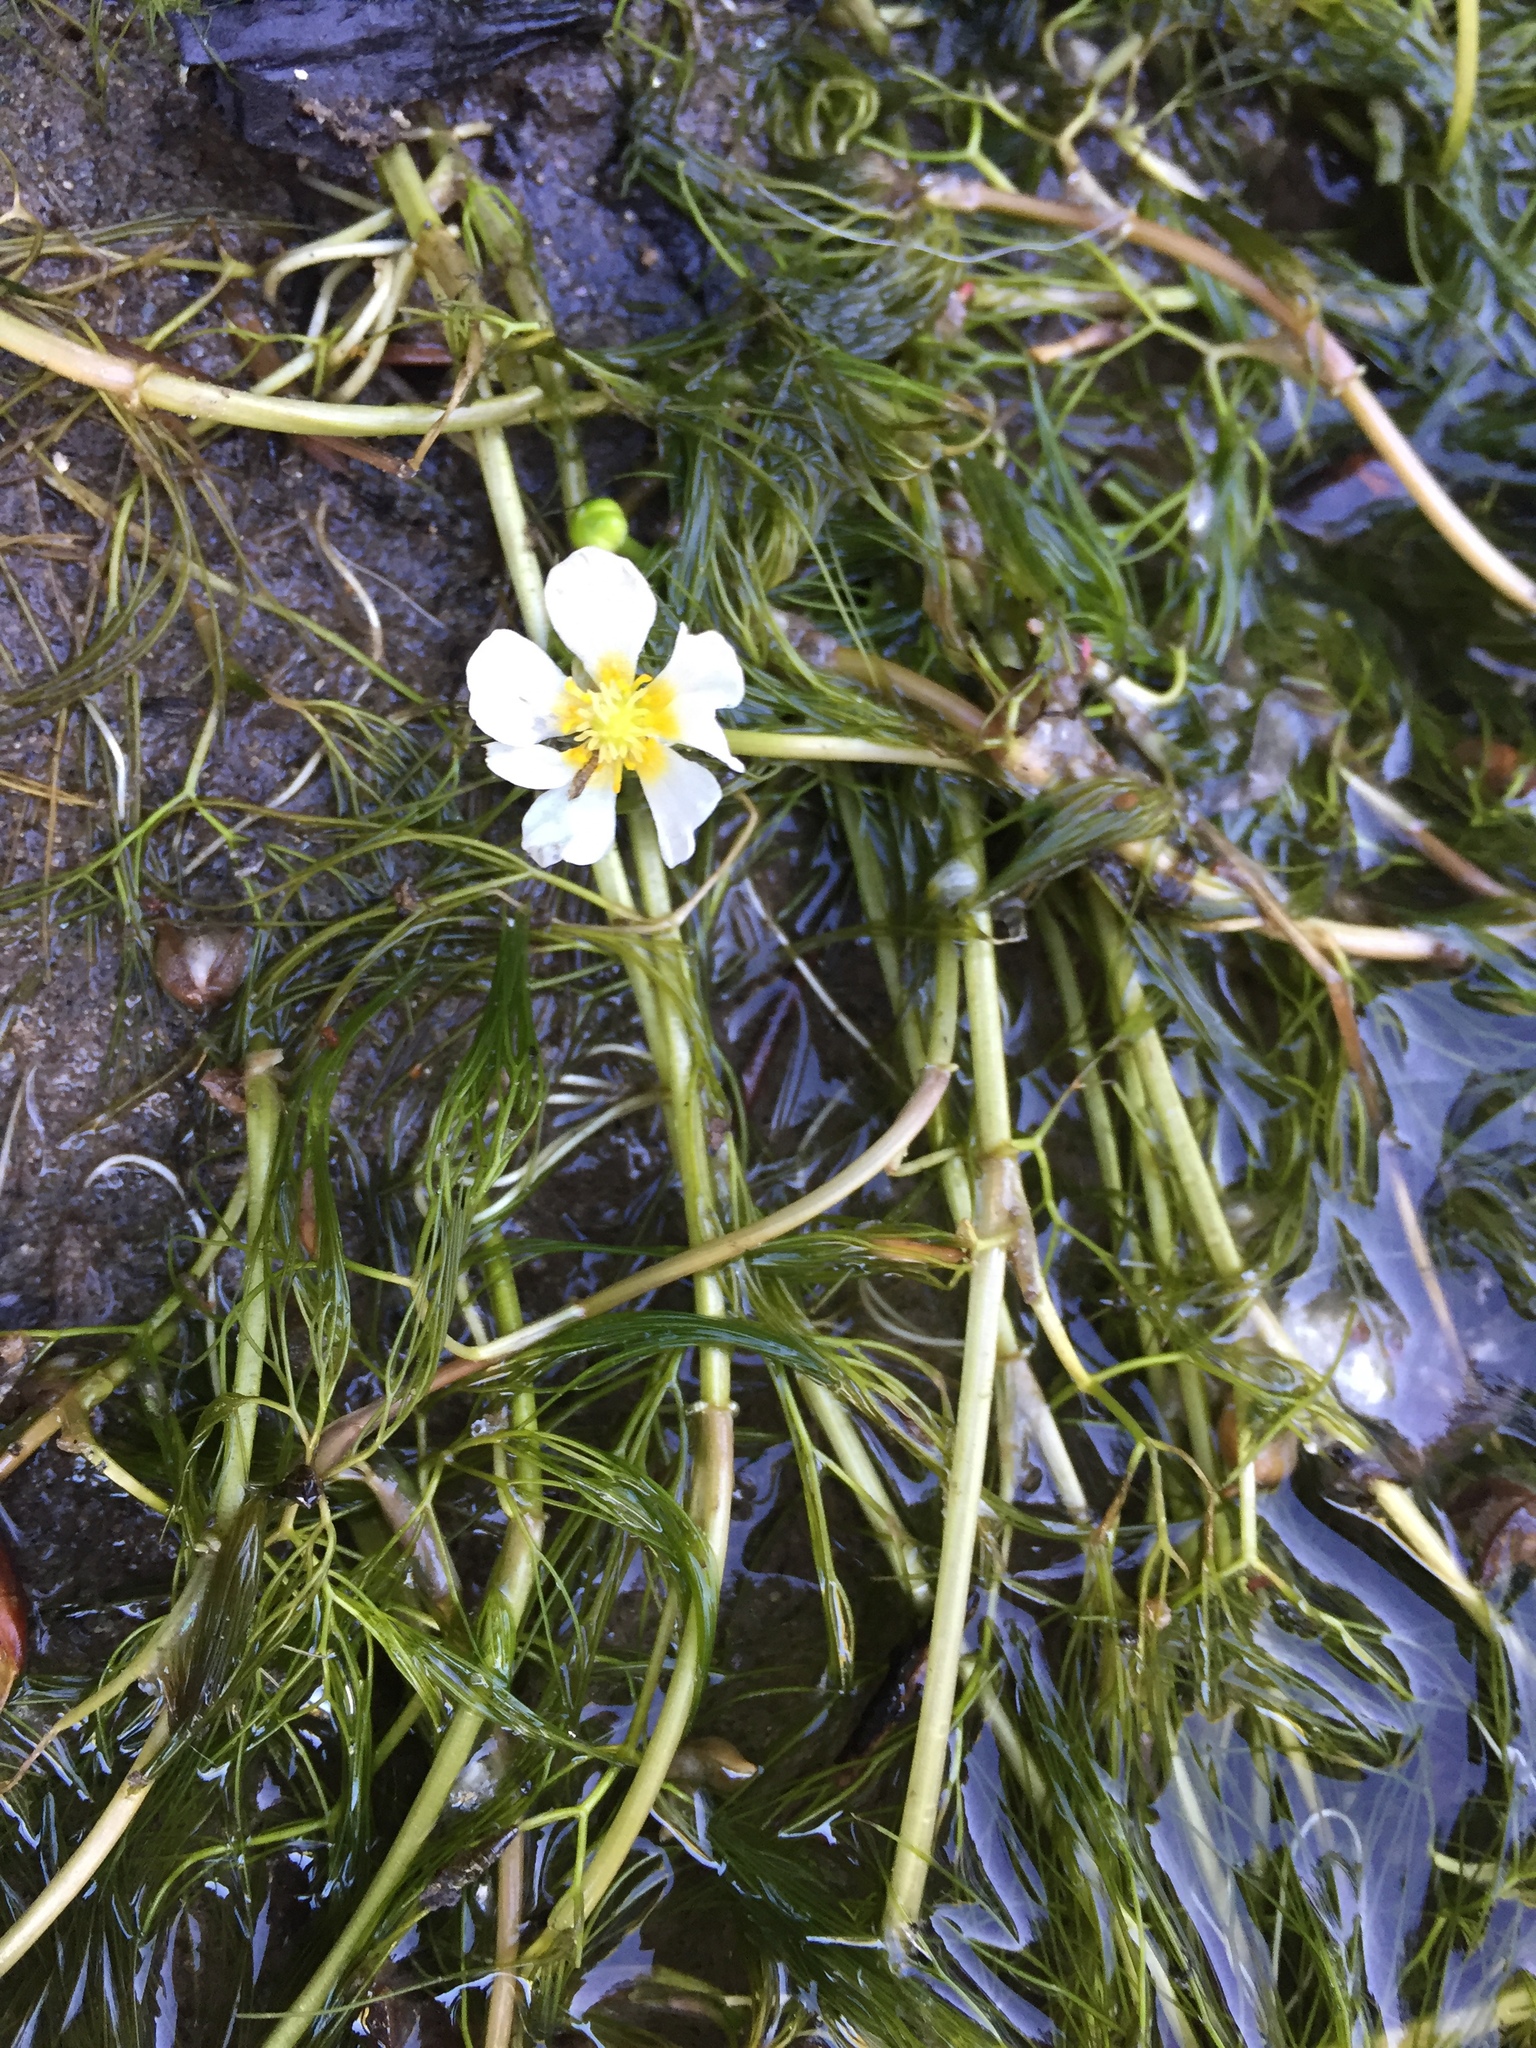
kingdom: Plantae
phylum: Tracheophyta
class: Magnoliopsida
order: Ranunculales
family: Ranunculaceae
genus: Ranunculus
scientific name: Ranunculus aquatilis
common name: Common water-crowfoot
